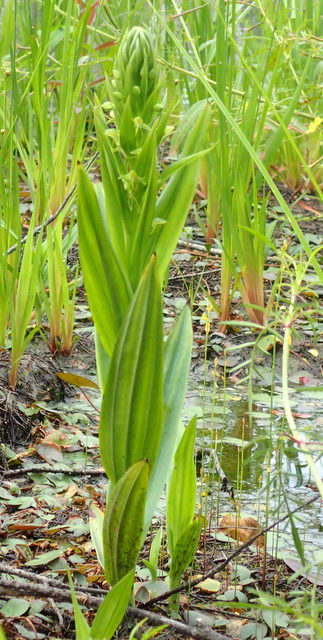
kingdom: Plantae
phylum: Tracheophyta
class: Liliopsida
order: Asparagales
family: Orchidaceae
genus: Habenaria
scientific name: Habenaria repens
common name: Water orchid
